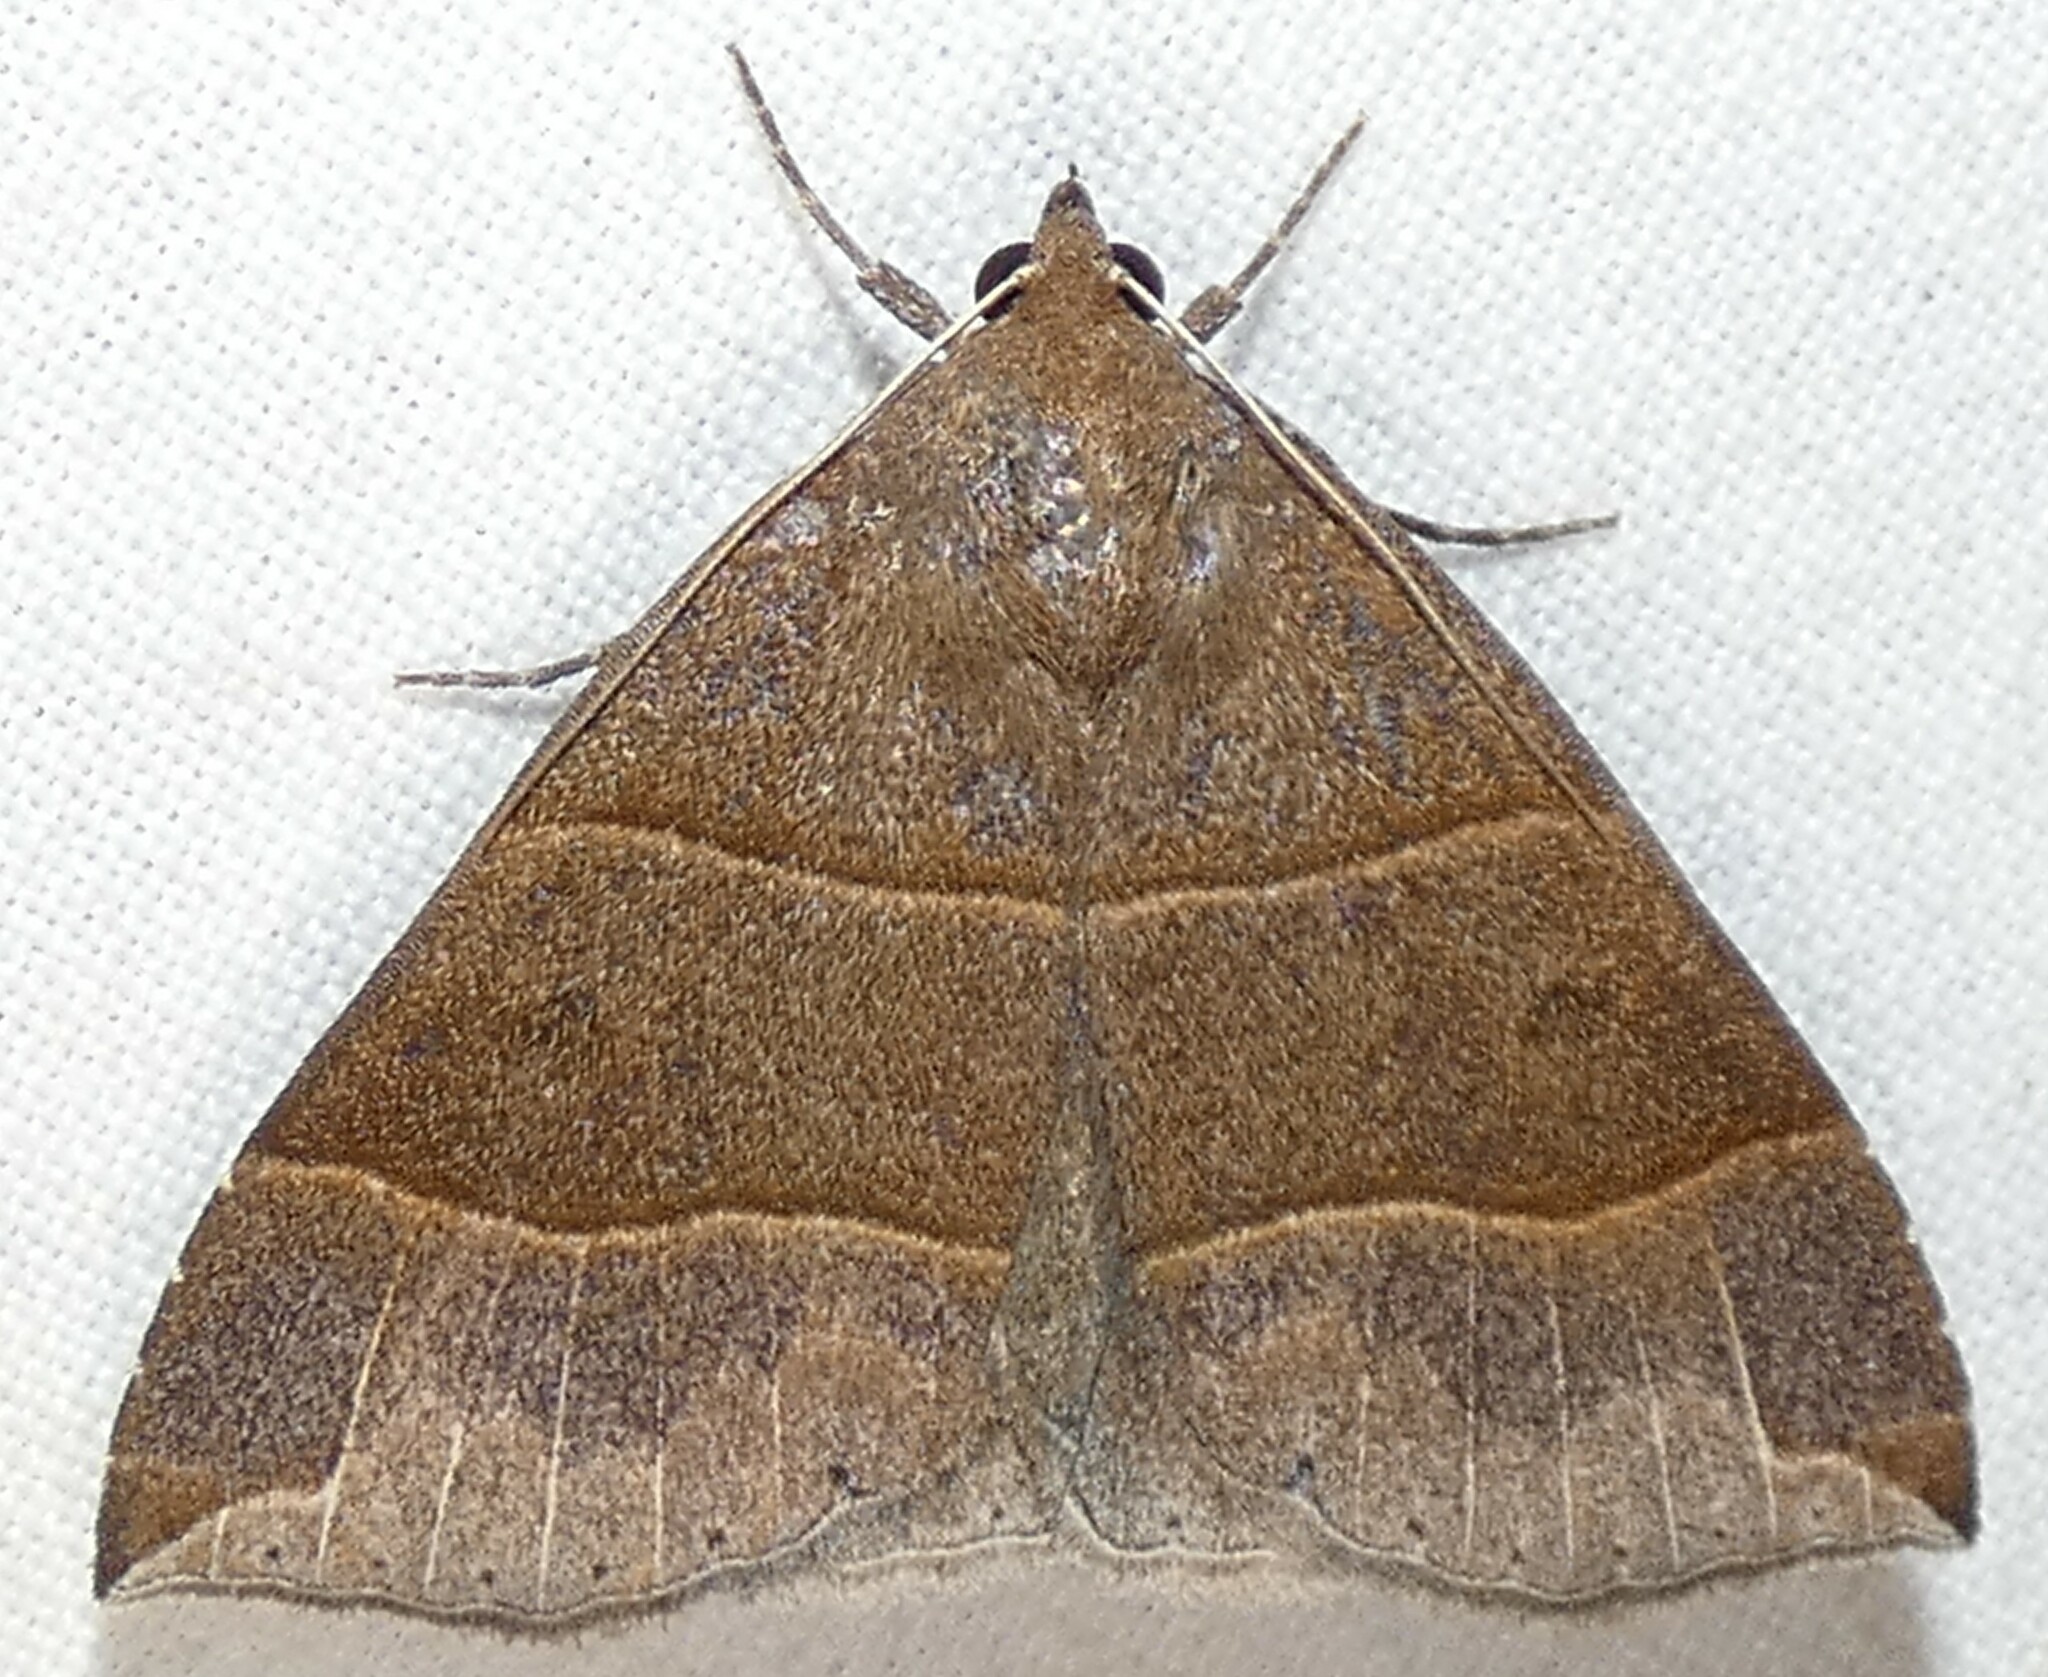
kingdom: Animalia
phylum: Arthropoda
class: Insecta
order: Lepidoptera
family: Erebidae
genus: Parallelia
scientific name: Parallelia bistriaris
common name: Maple looper moth
